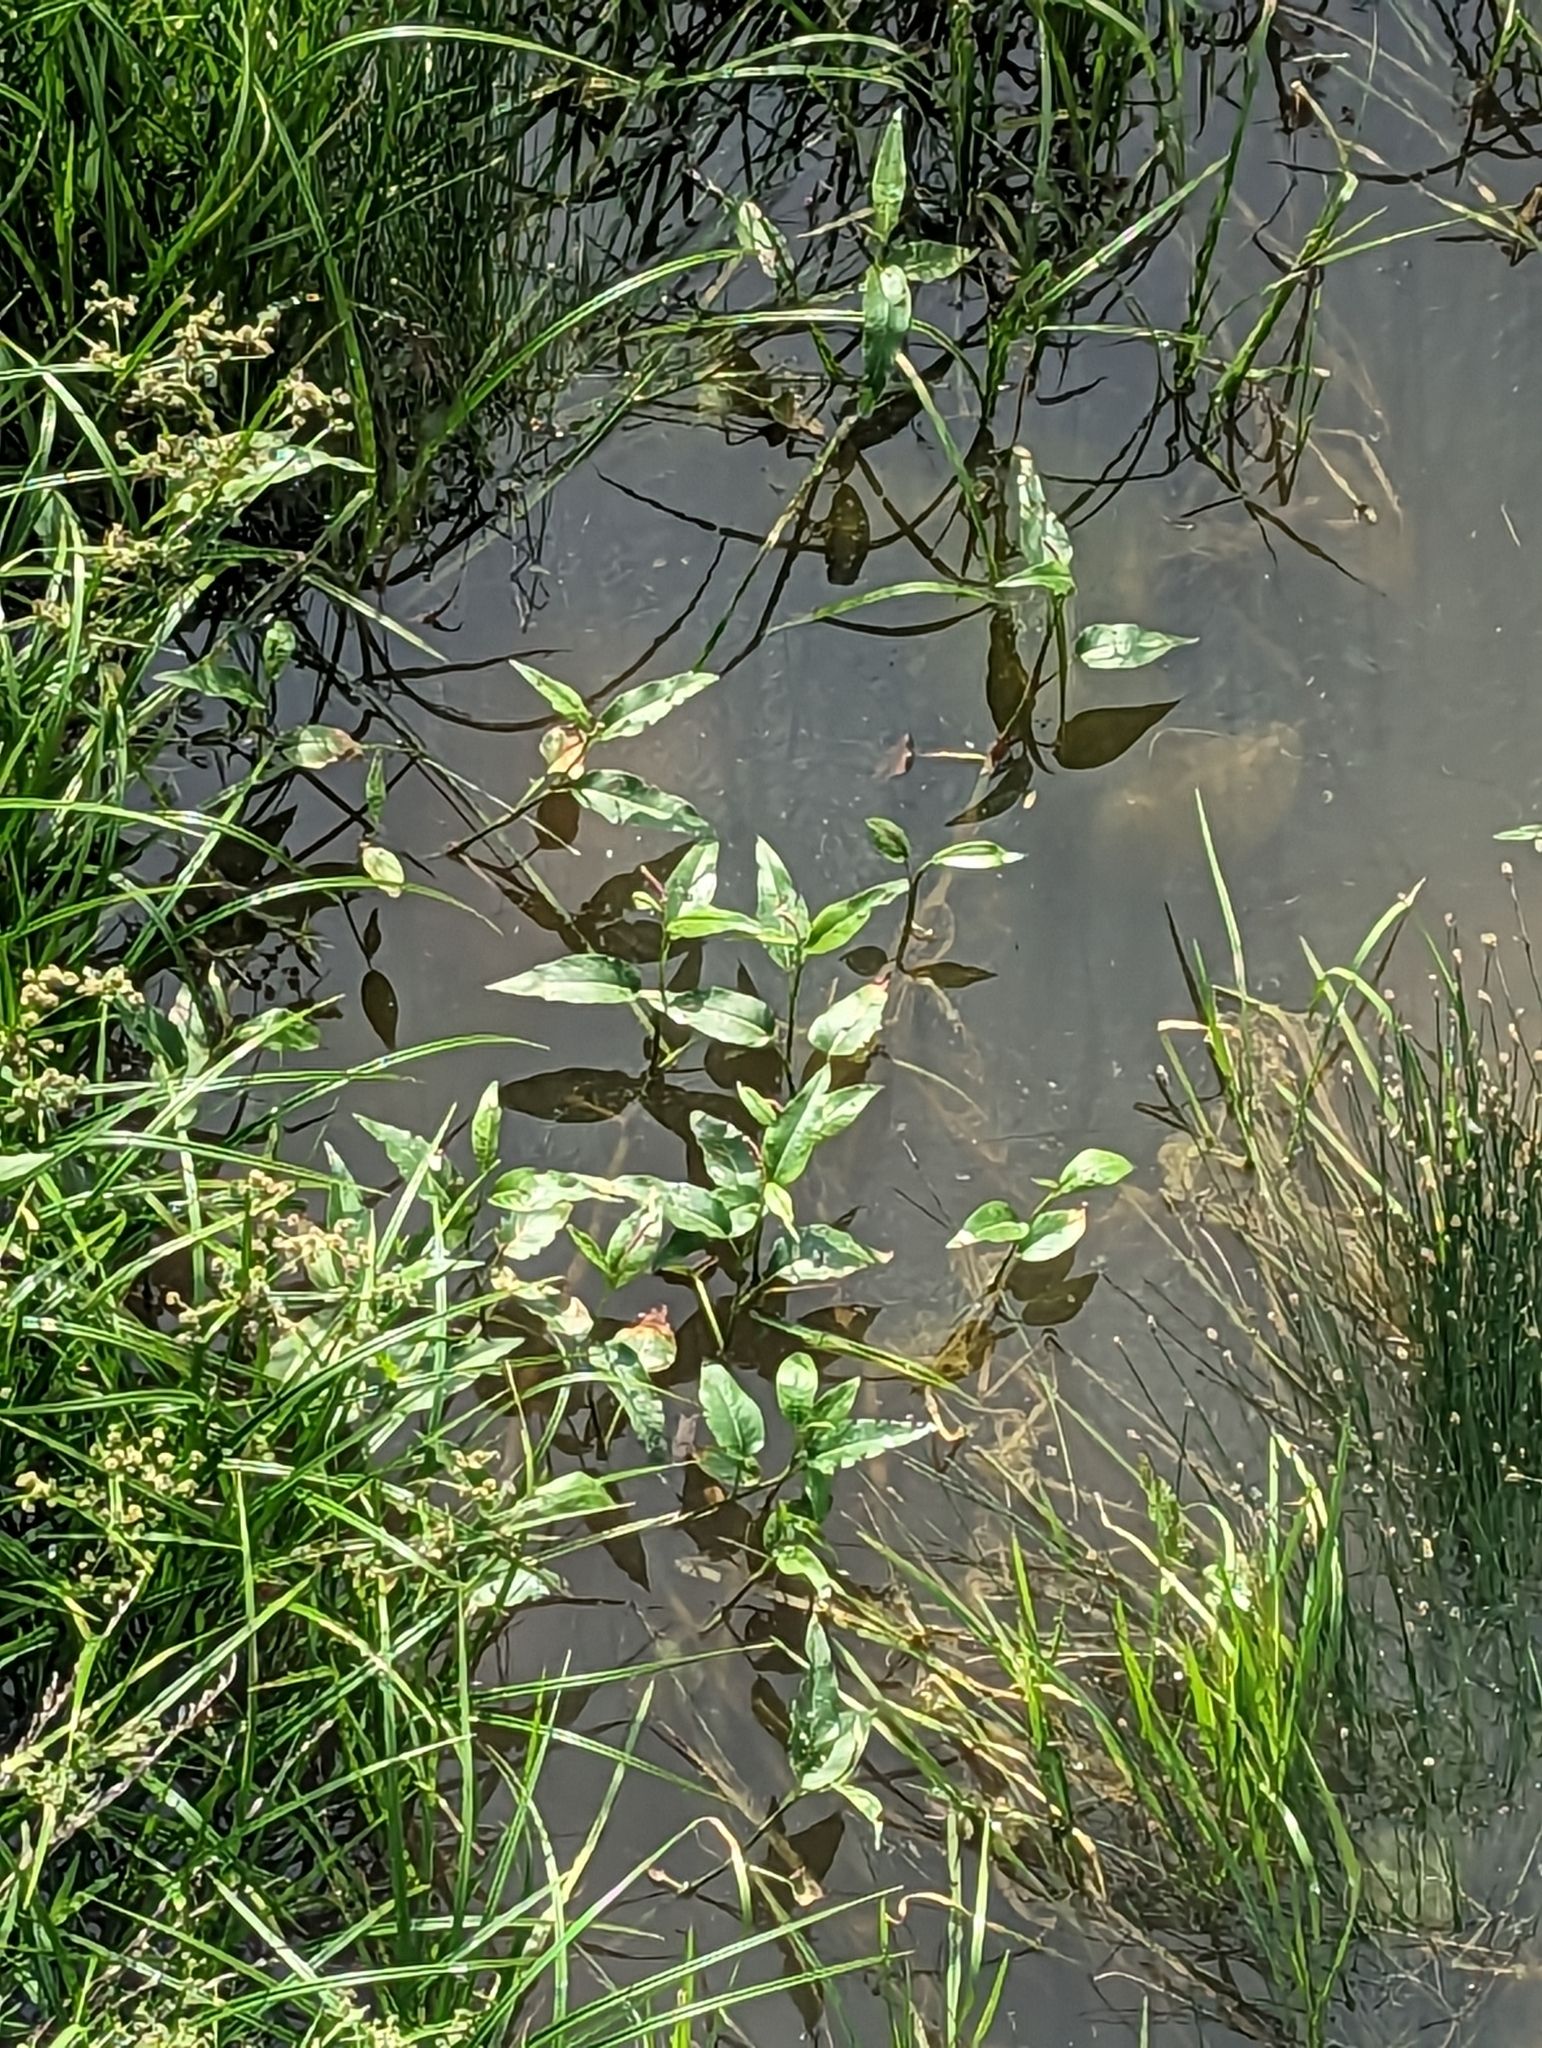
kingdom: Plantae
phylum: Tracheophyta
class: Magnoliopsida
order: Caryophyllales
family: Polygonaceae
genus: Persicaria
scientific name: Persicaria amphibia
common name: Amphibious bistort
